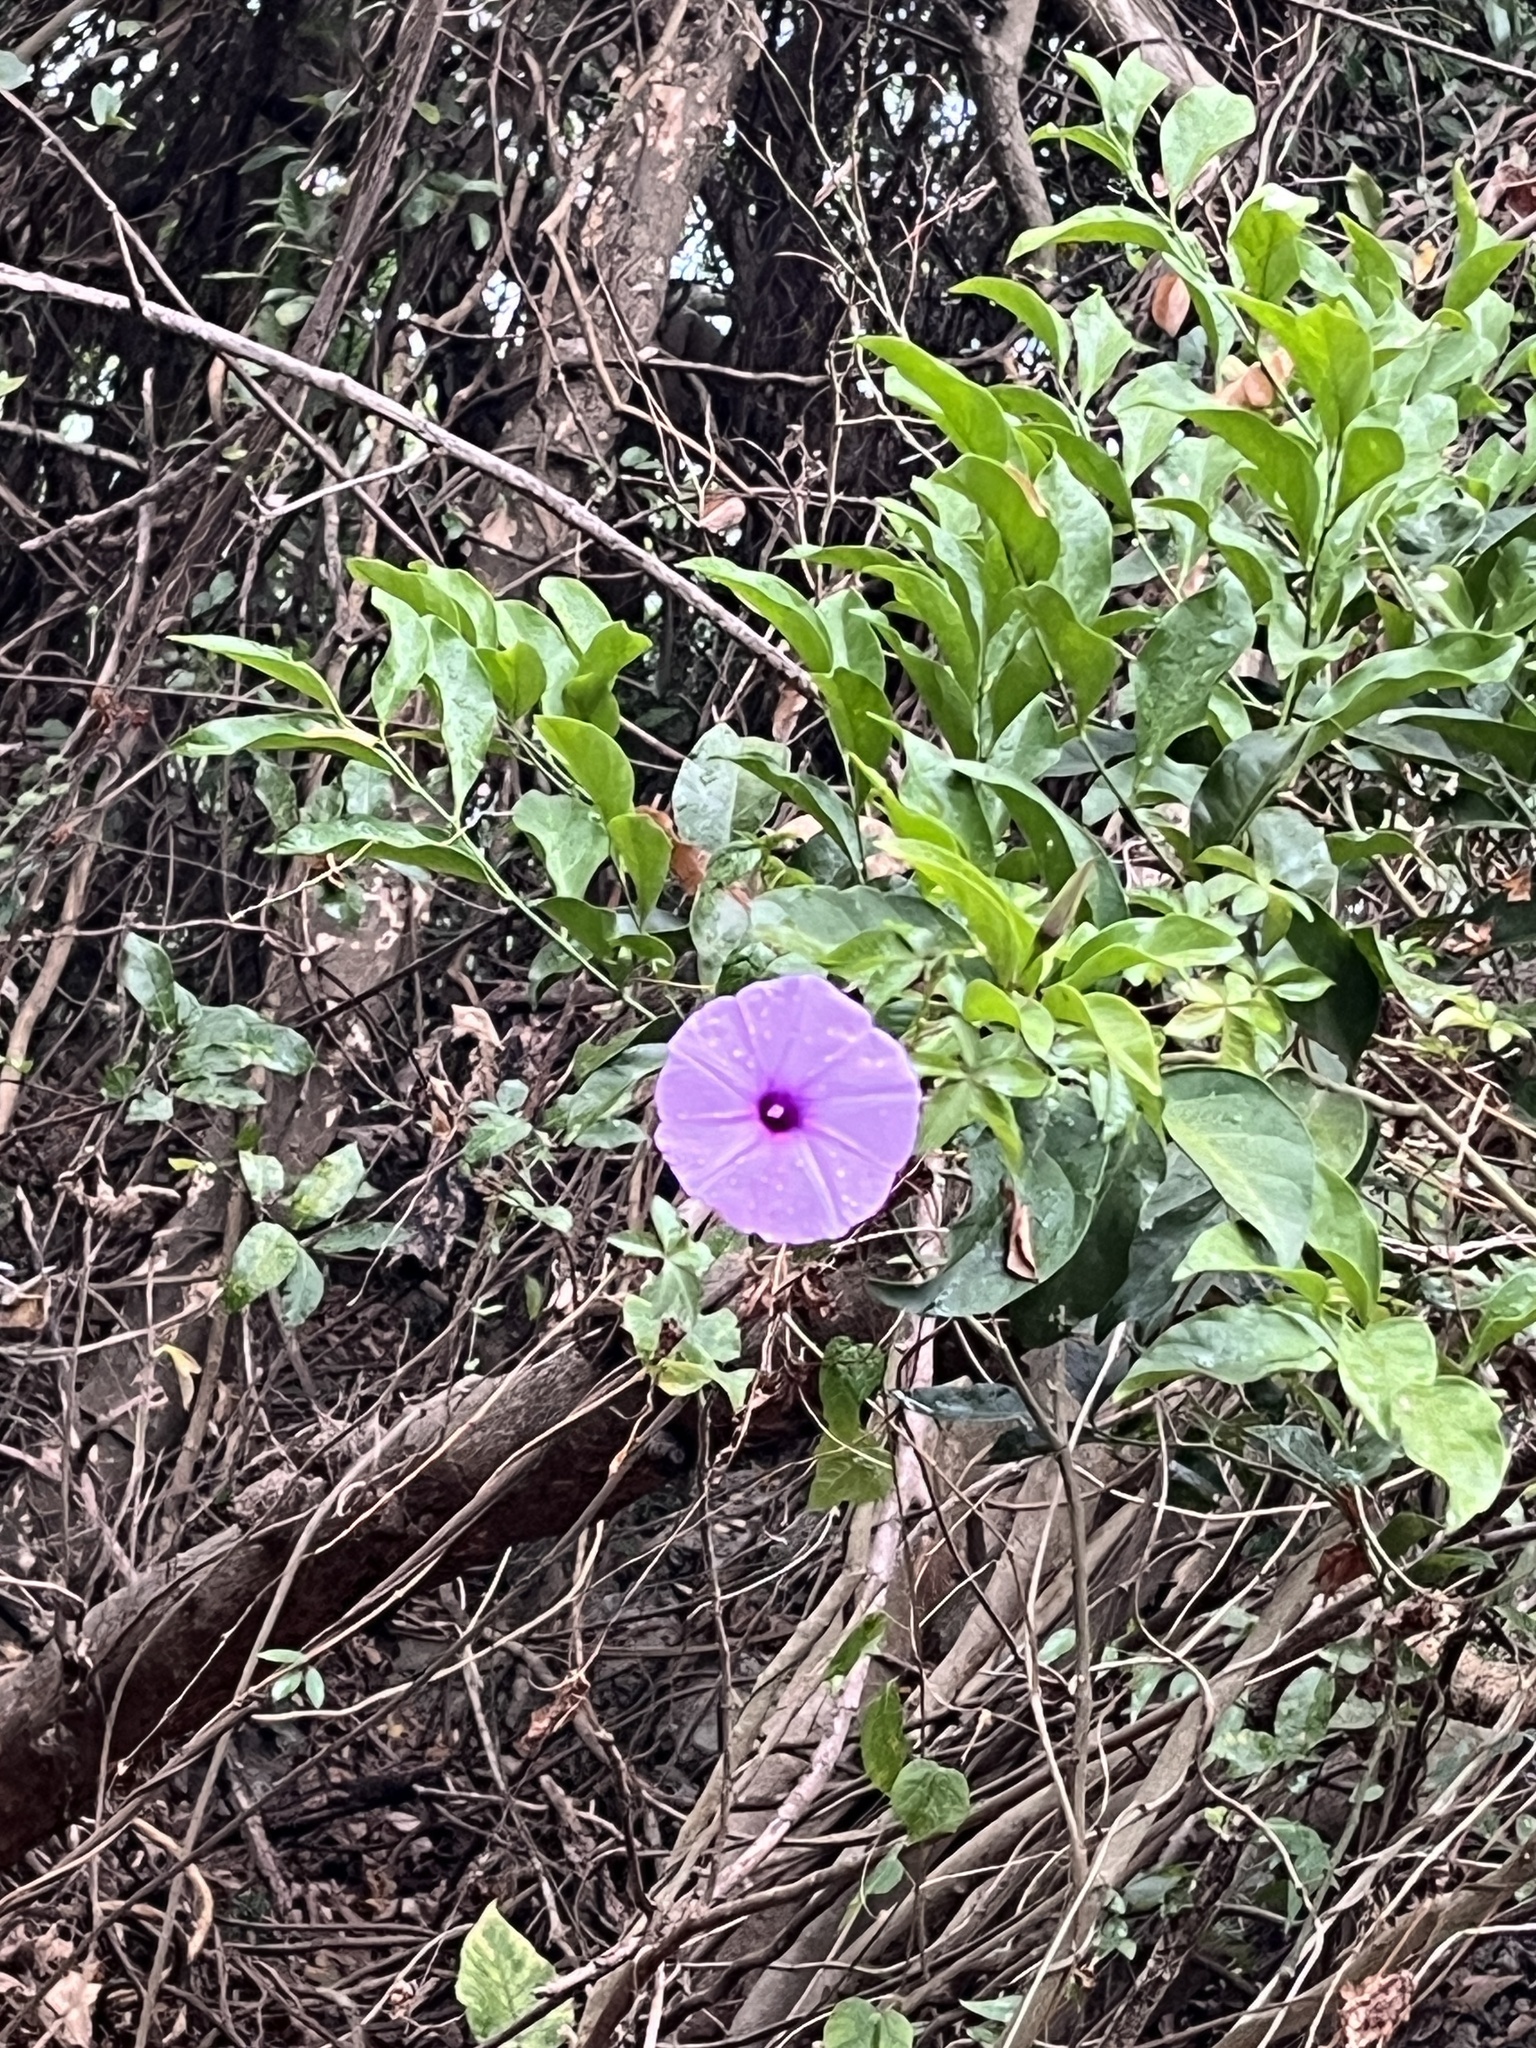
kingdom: Plantae
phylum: Tracheophyta
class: Magnoliopsida
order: Solanales
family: Convolvulaceae
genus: Ipomoea
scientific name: Ipomoea cairica
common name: Mile a minute vine
